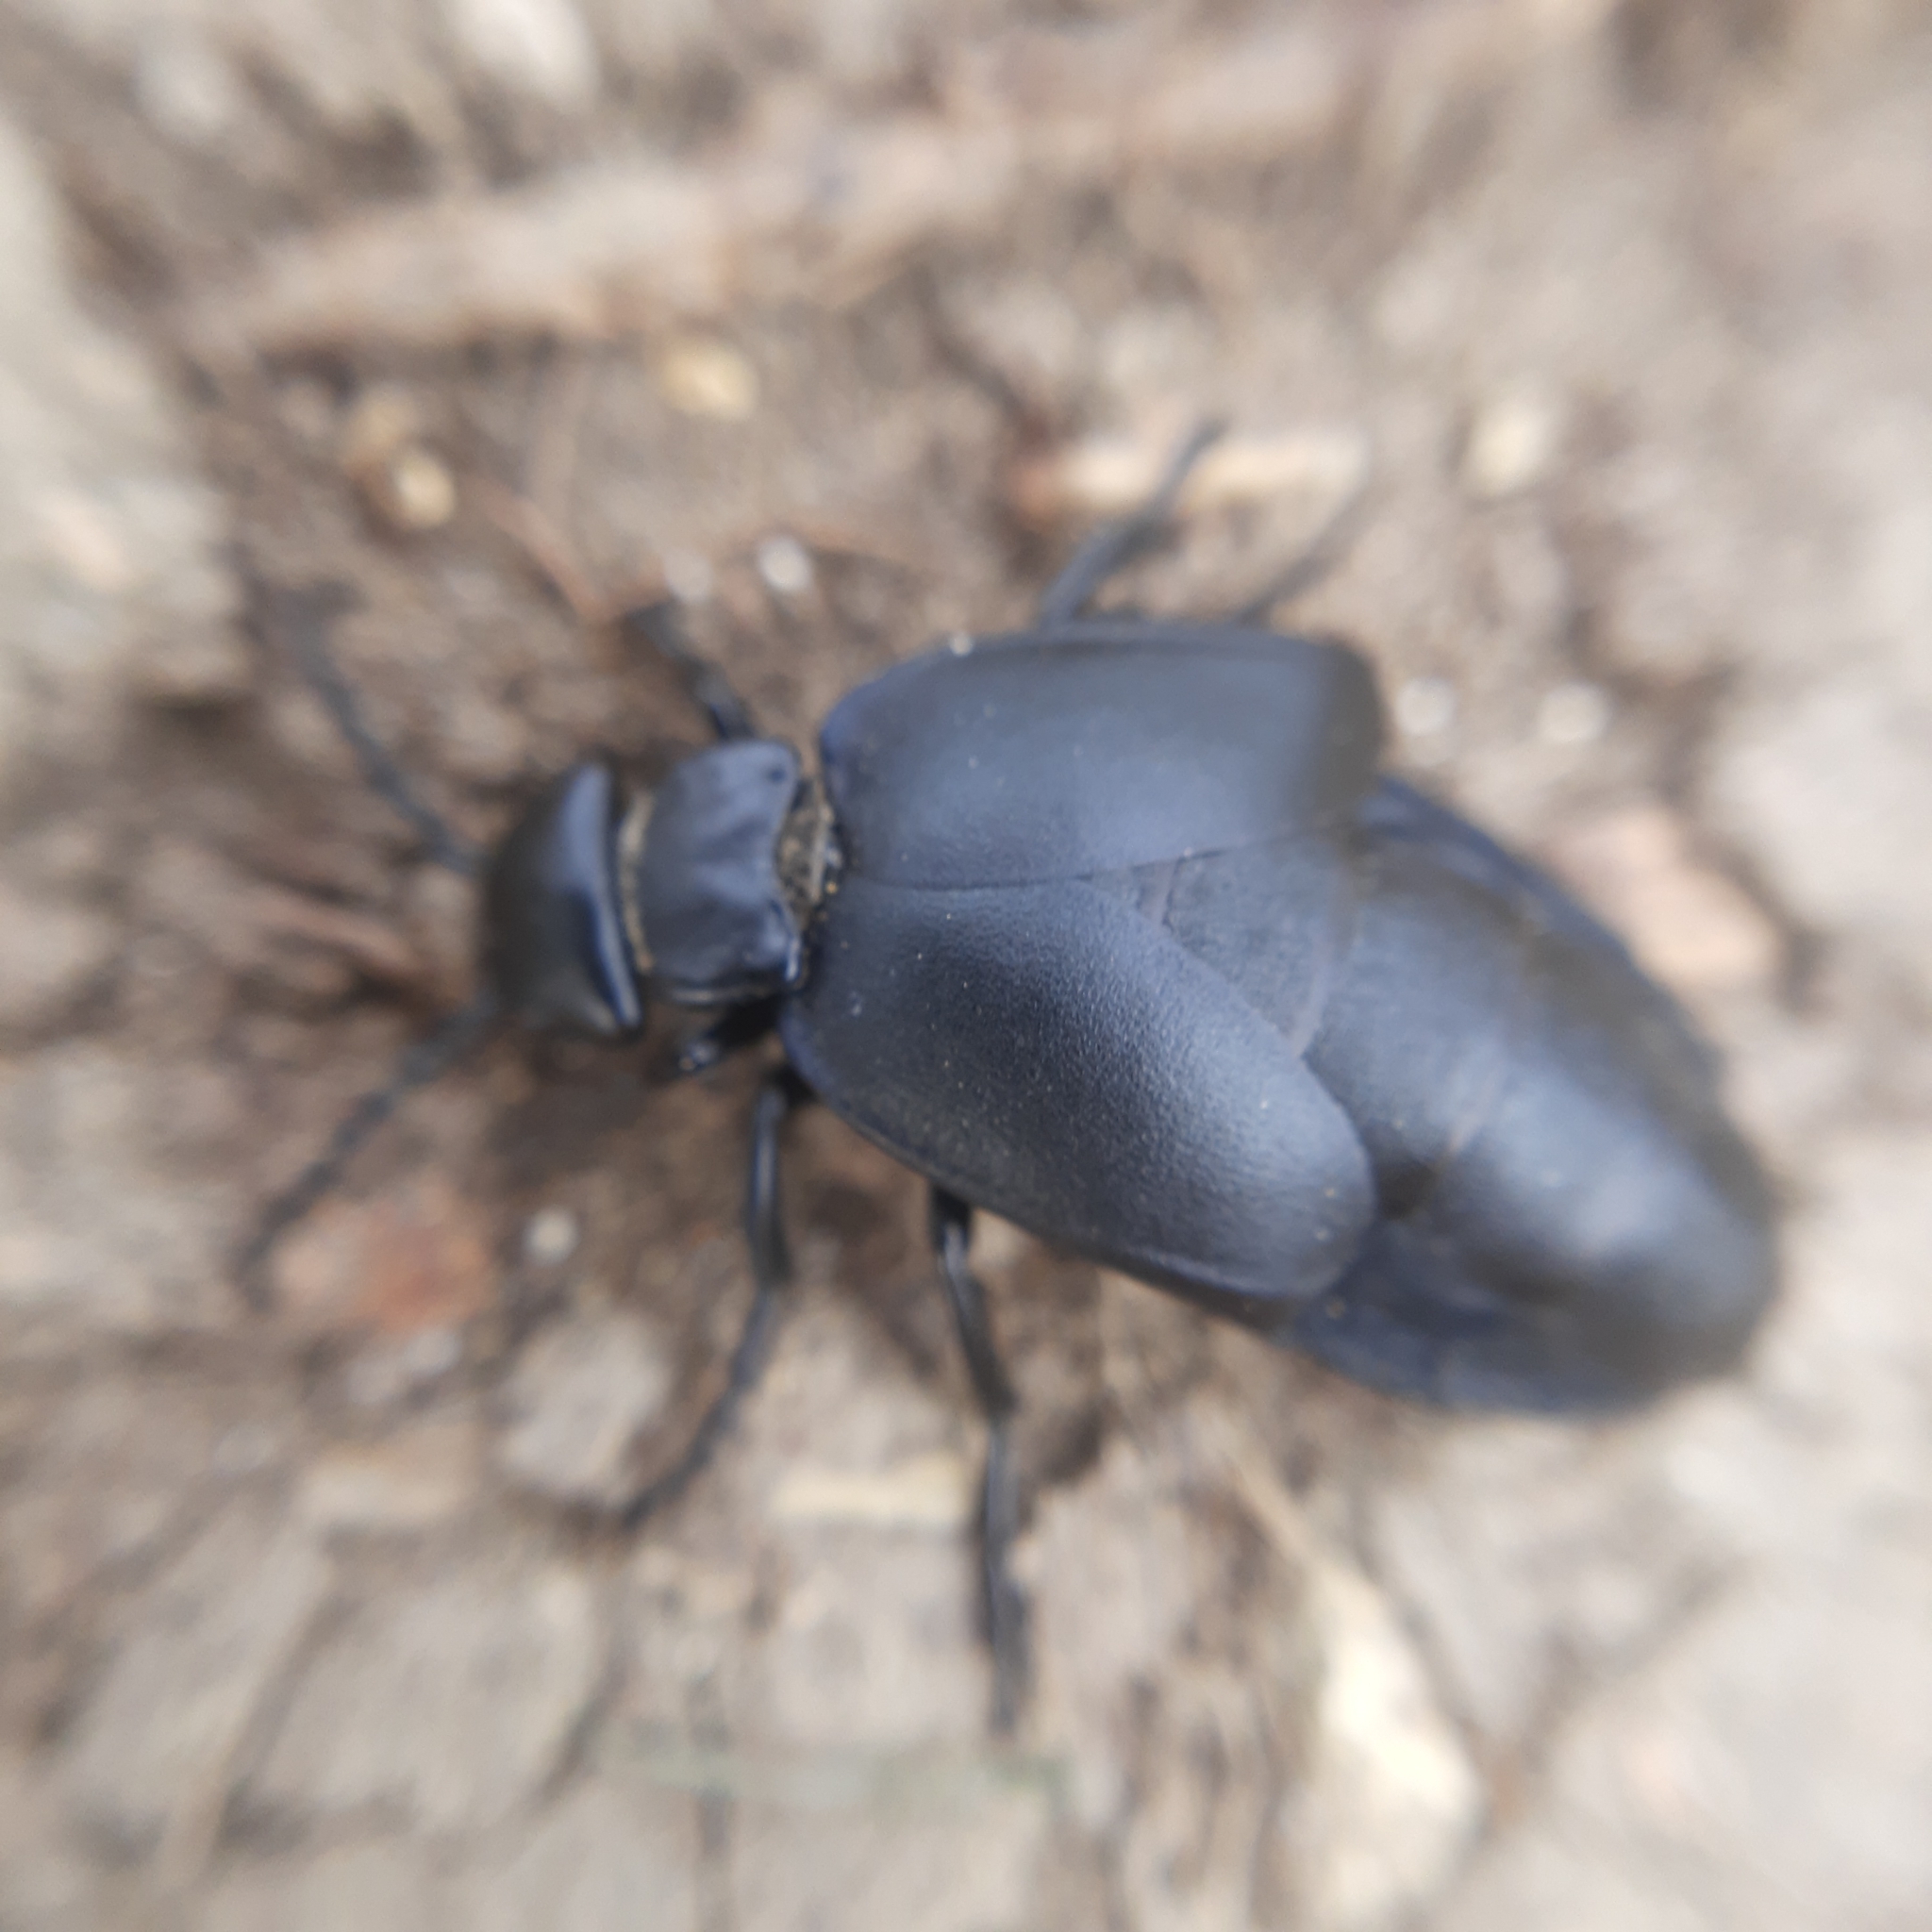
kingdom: Animalia
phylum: Arthropoda
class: Insecta
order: Coleoptera
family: Meloidae
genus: Meloe
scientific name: Meloe uralensis
